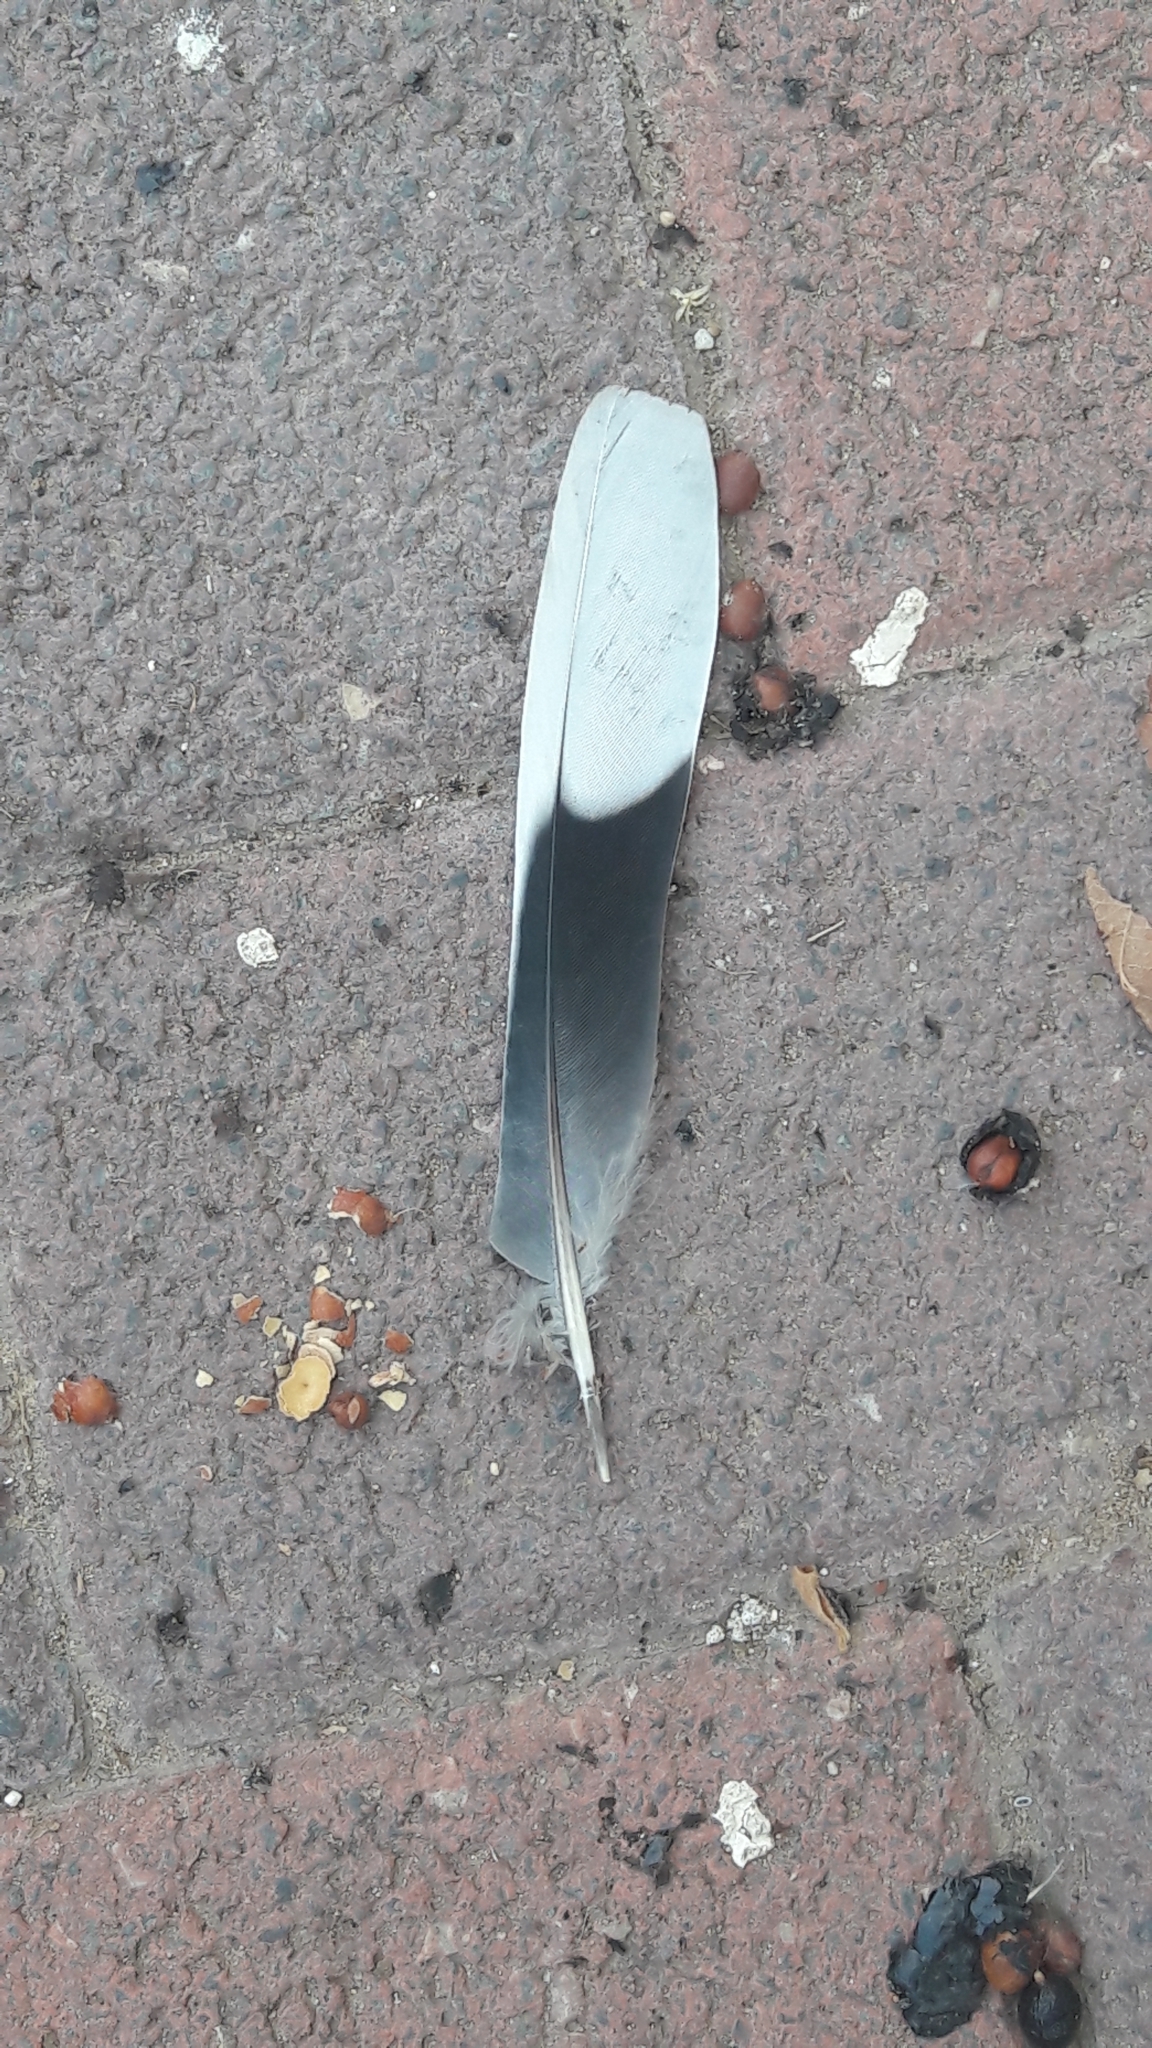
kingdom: Animalia
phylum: Chordata
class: Aves
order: Columbiformes
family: Columbidae
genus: Spilopelia
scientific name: Spilopelia senegalensis
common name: Laughing dove
